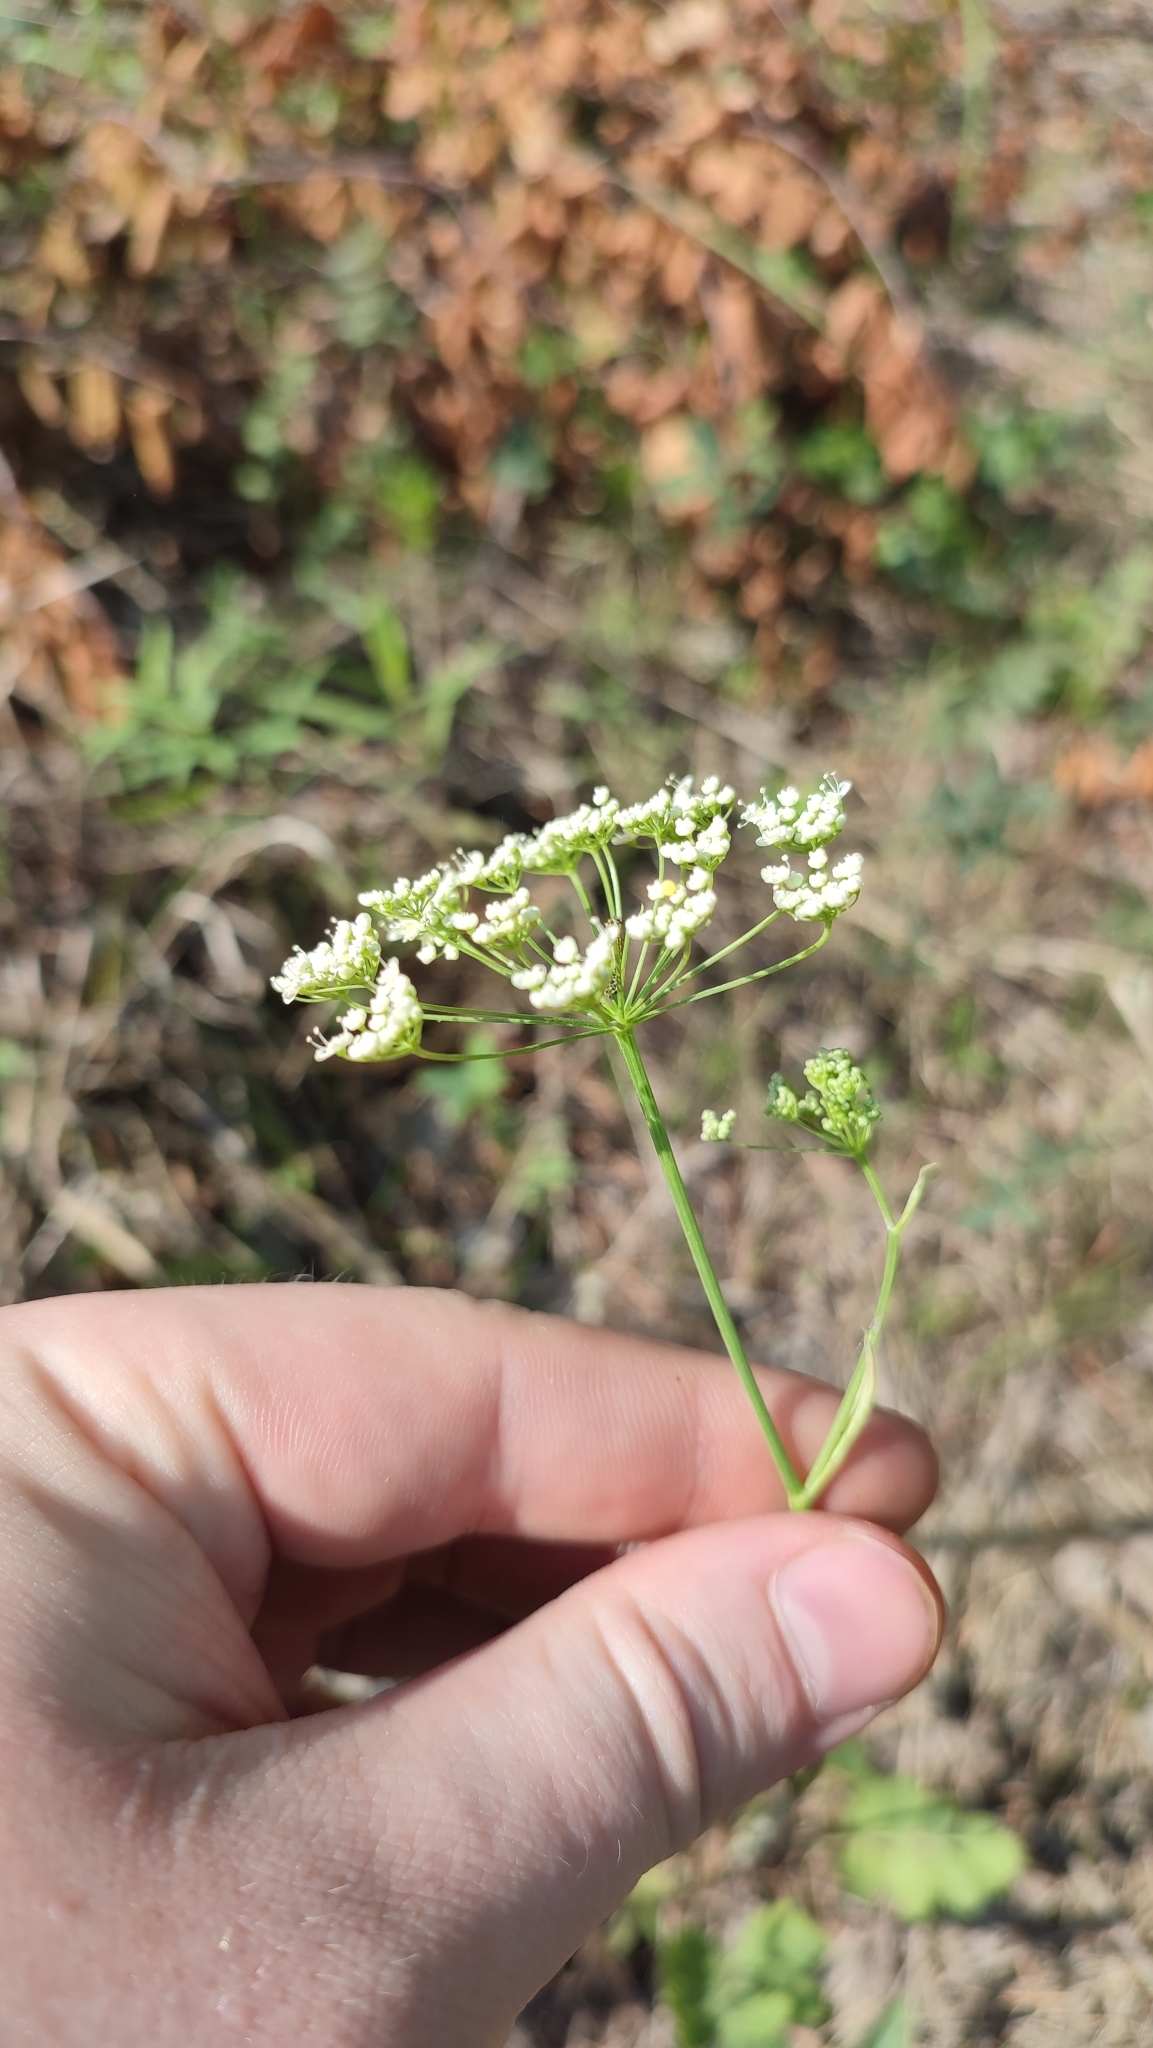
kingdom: Plantae
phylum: Tracheophyta
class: Magnoliopsida
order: Apiales
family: Apiaceae
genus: Pimpinella
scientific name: Pimpinella saxifraga
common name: Burnet-saxifrage
